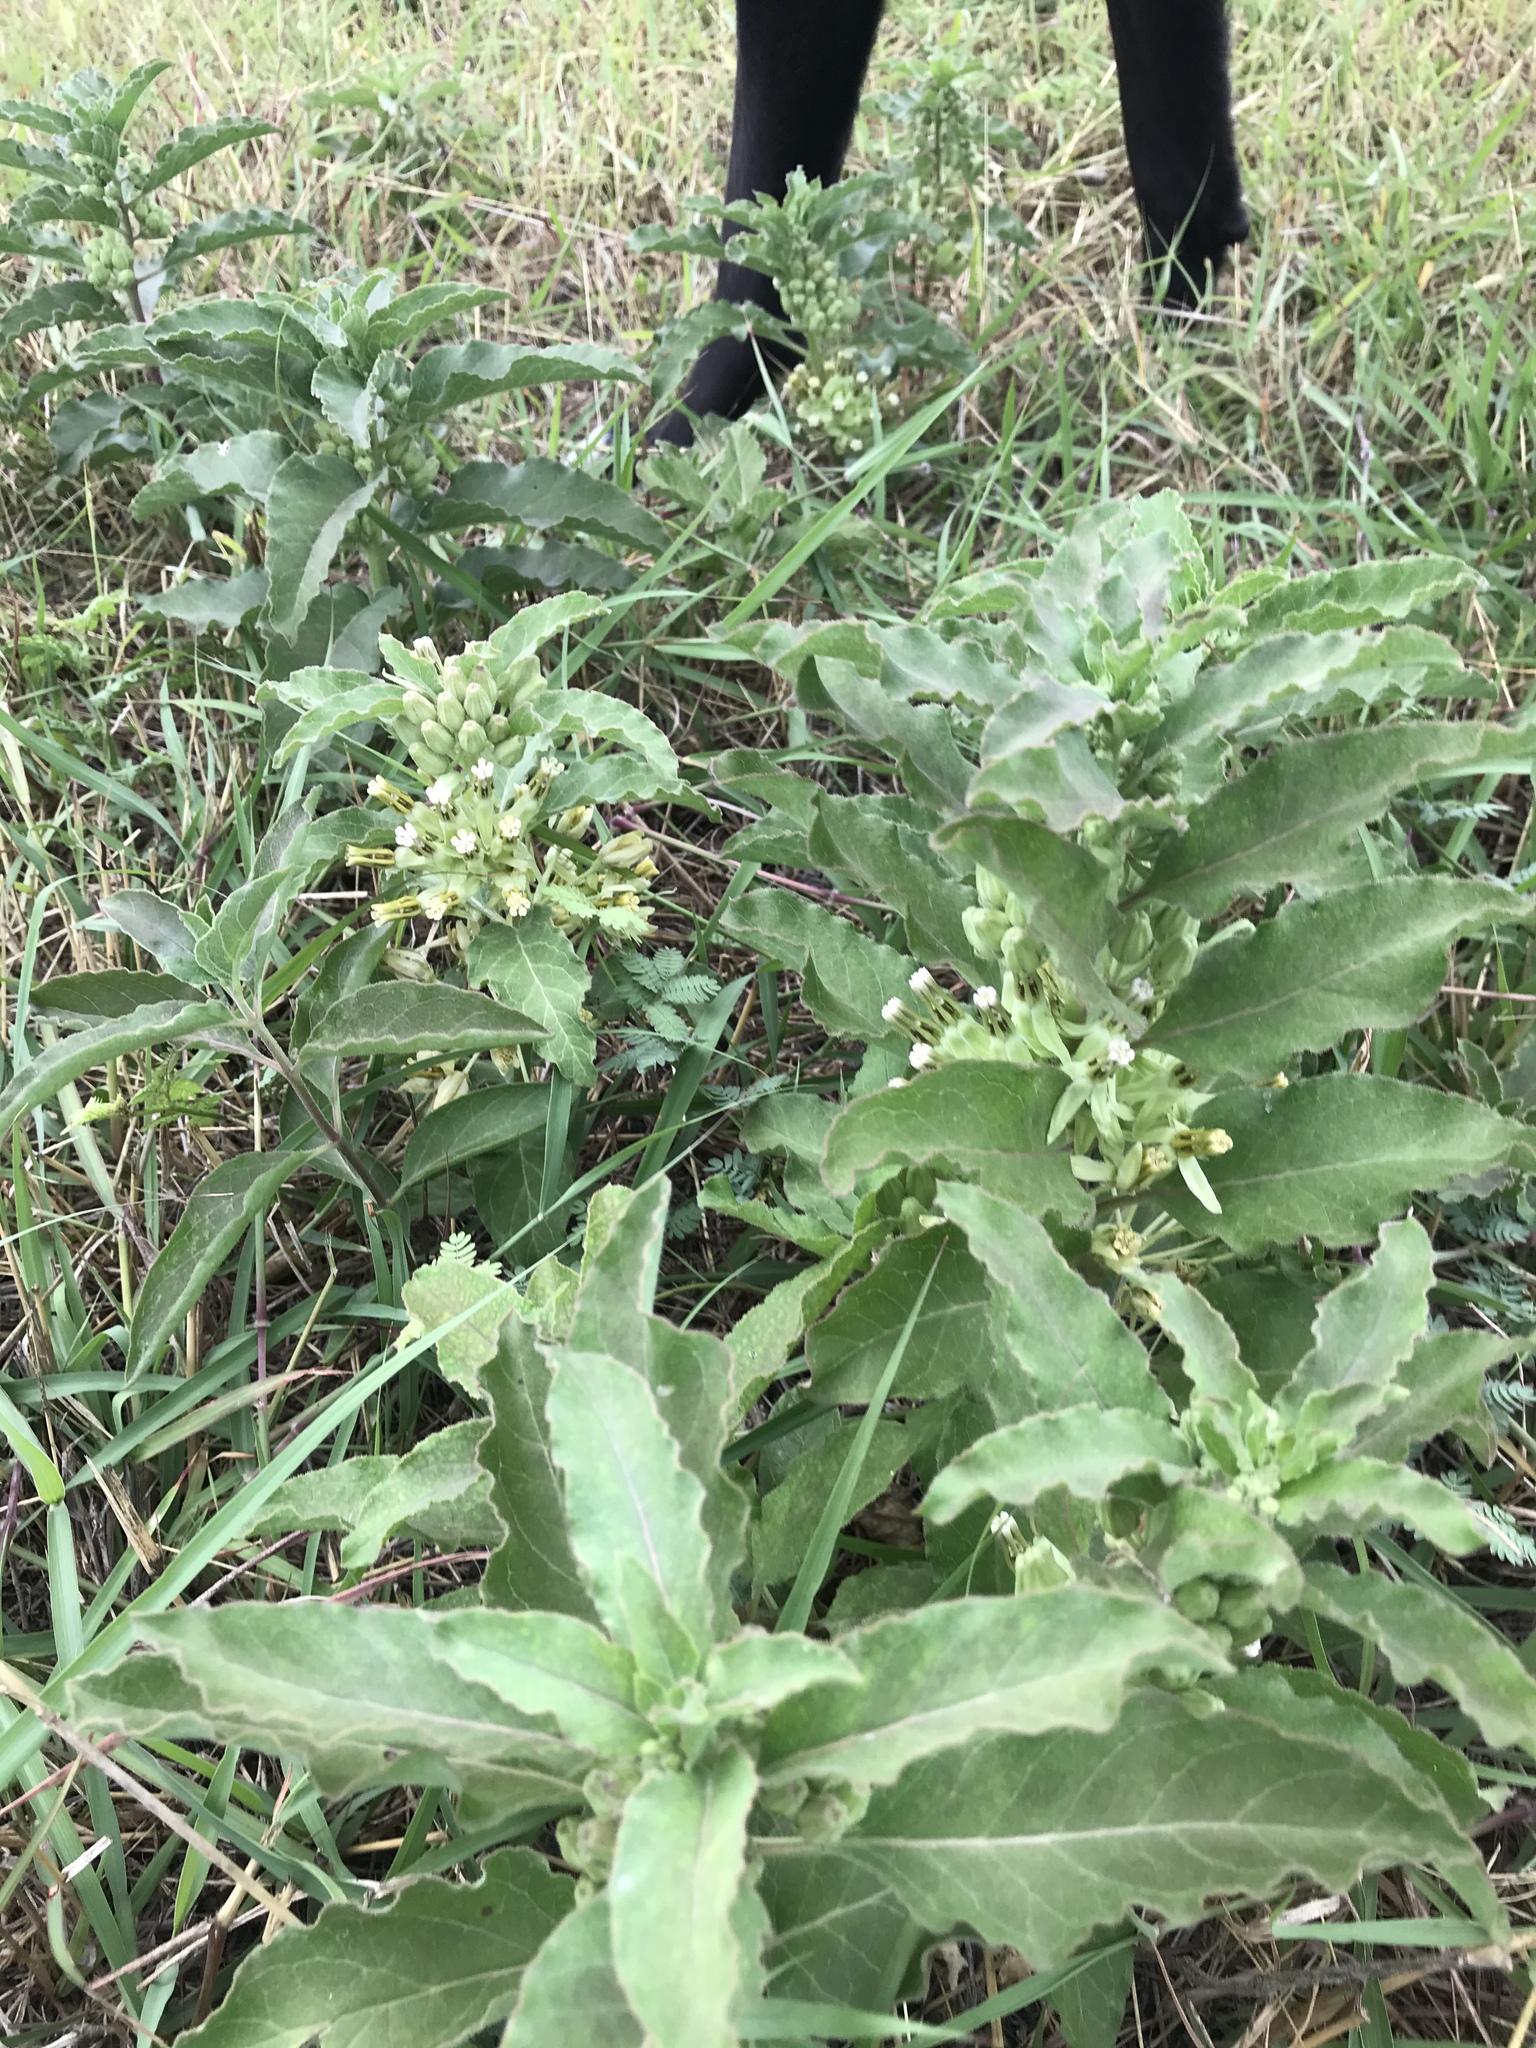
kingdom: Plantae
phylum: Tracheophyta
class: Magnoliopsida
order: Gentianales
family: Apocynaceae
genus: Asclepias
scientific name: Asclepias oenotheroides
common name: Zizotes milkweed
